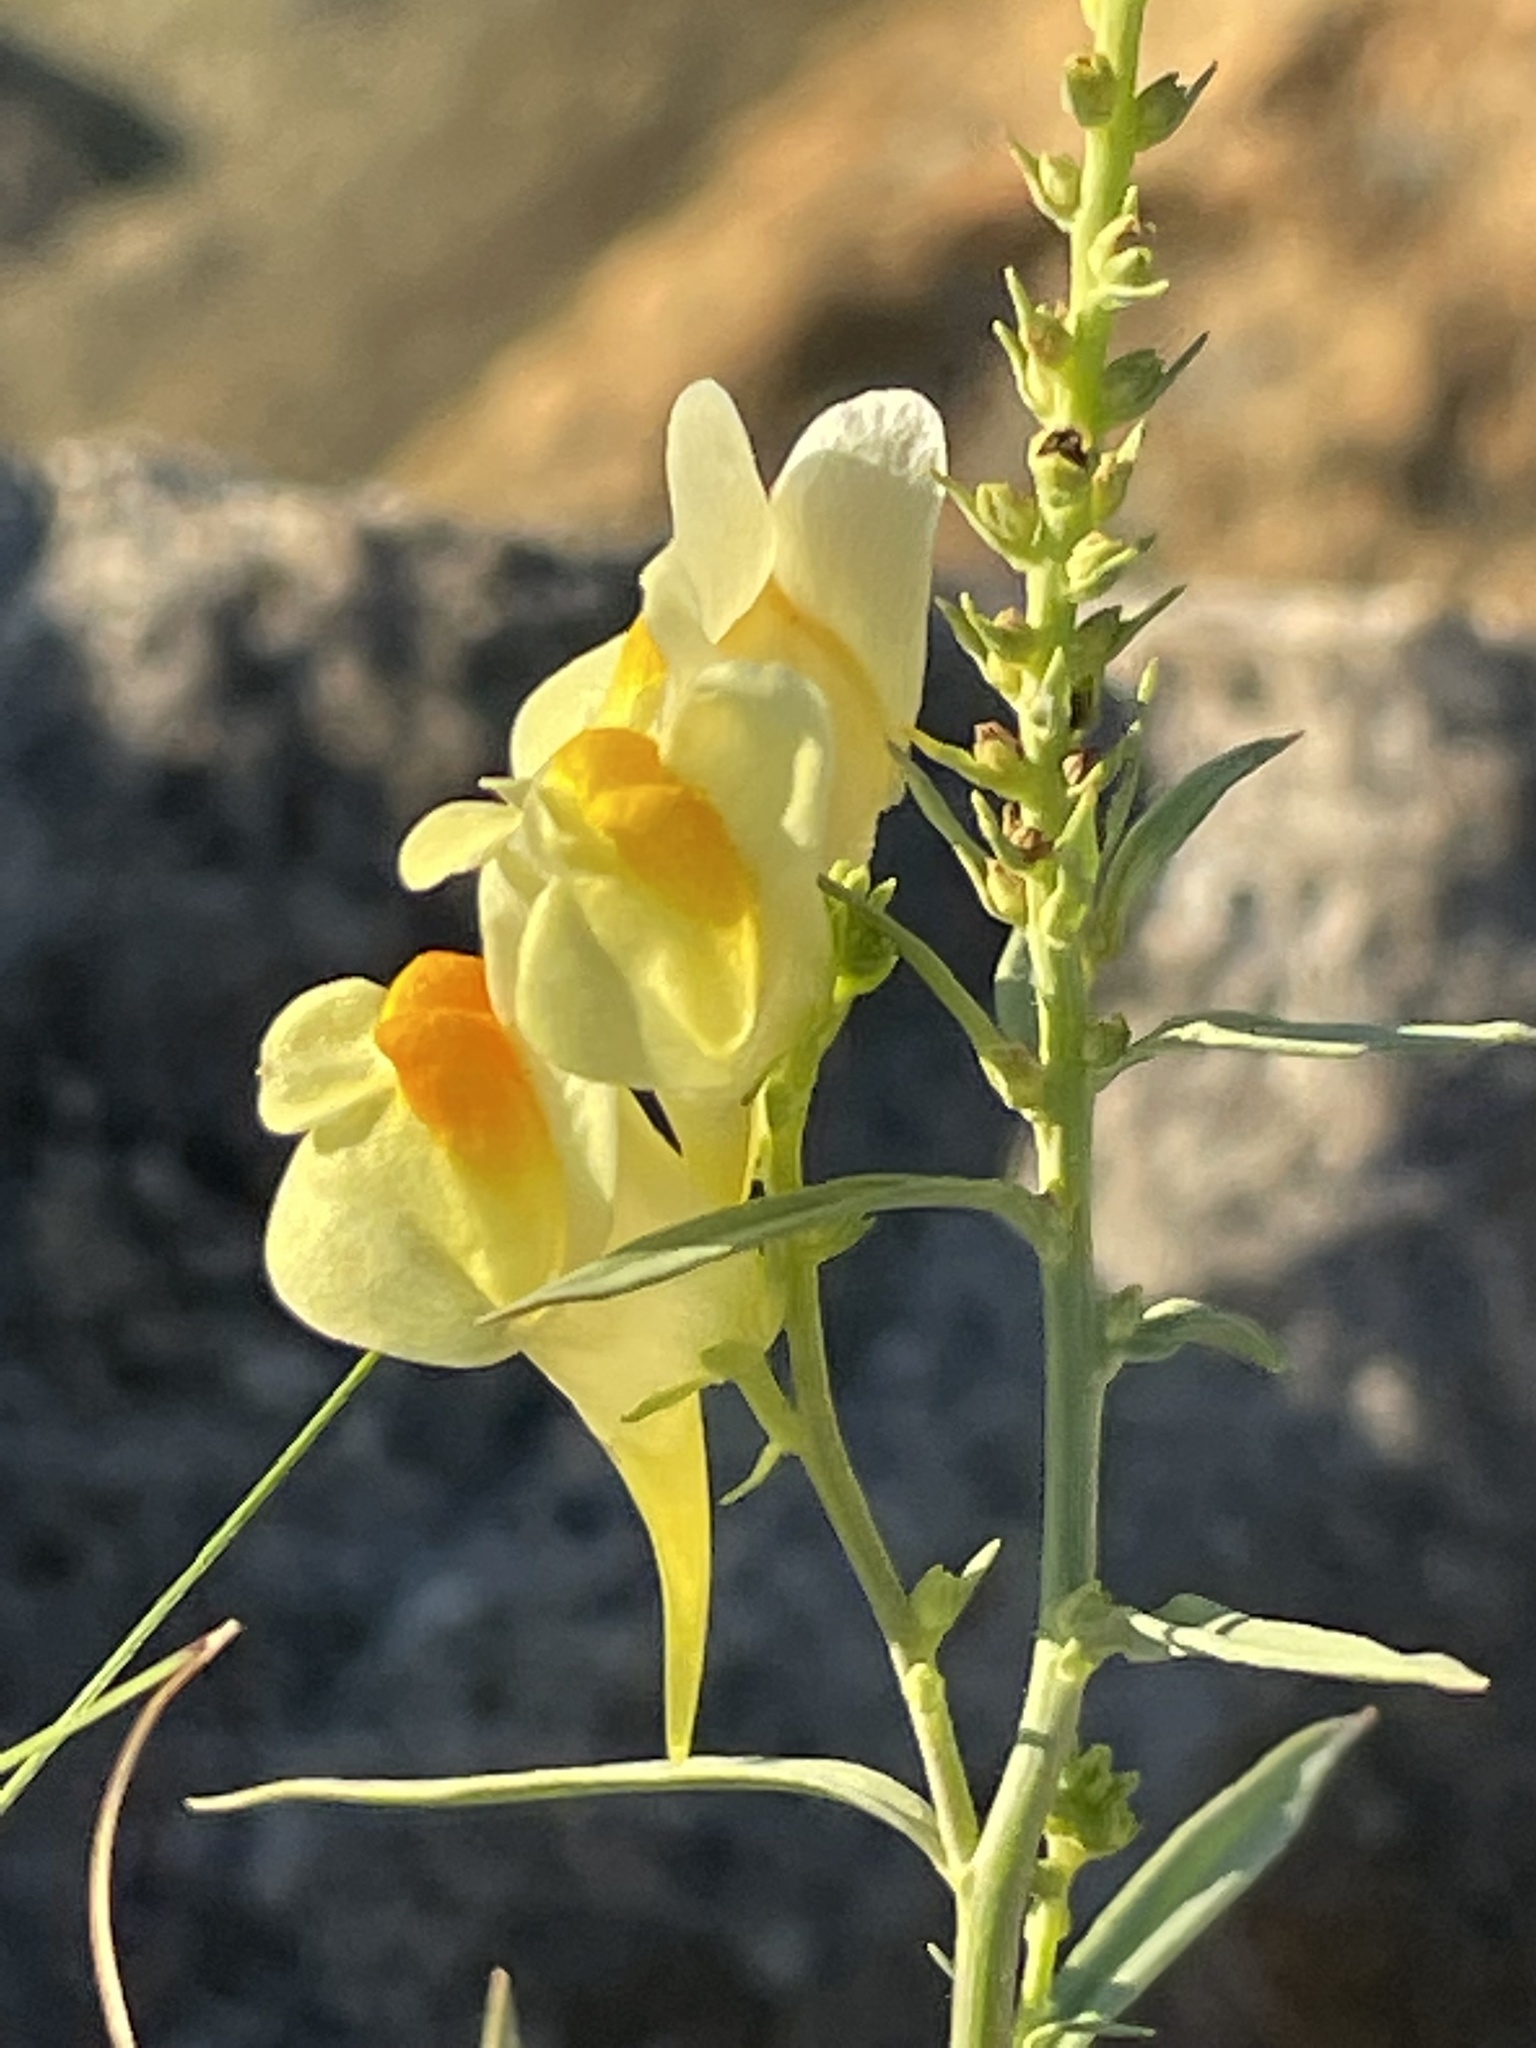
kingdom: Plantae
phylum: Tracheophyta
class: Magnoliopsida
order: Lamiales
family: Plantaginaceae
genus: Linaria
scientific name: Linaria vulgaris
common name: Butter and eggs
